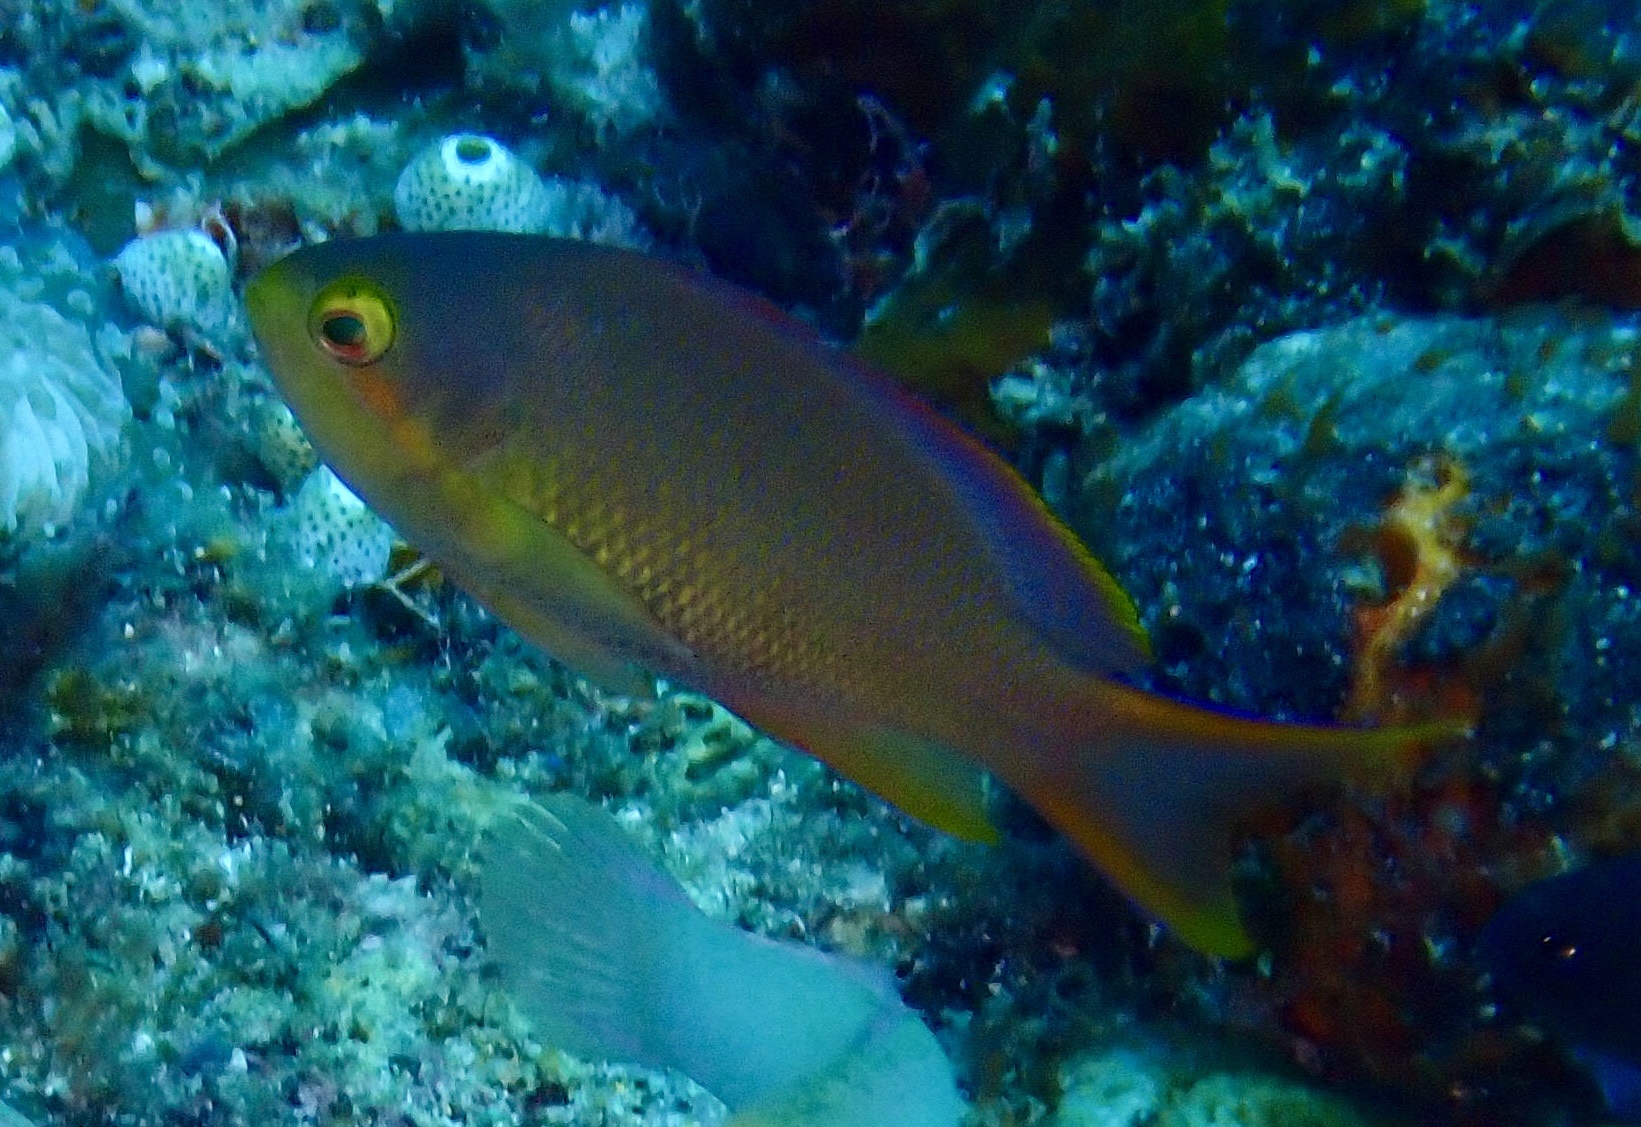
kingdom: Animalia
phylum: Chordata
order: Perciformes
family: Serranidae
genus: Pseudanthias
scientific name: Pseudanthias huchtii
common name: Pacific basslet
